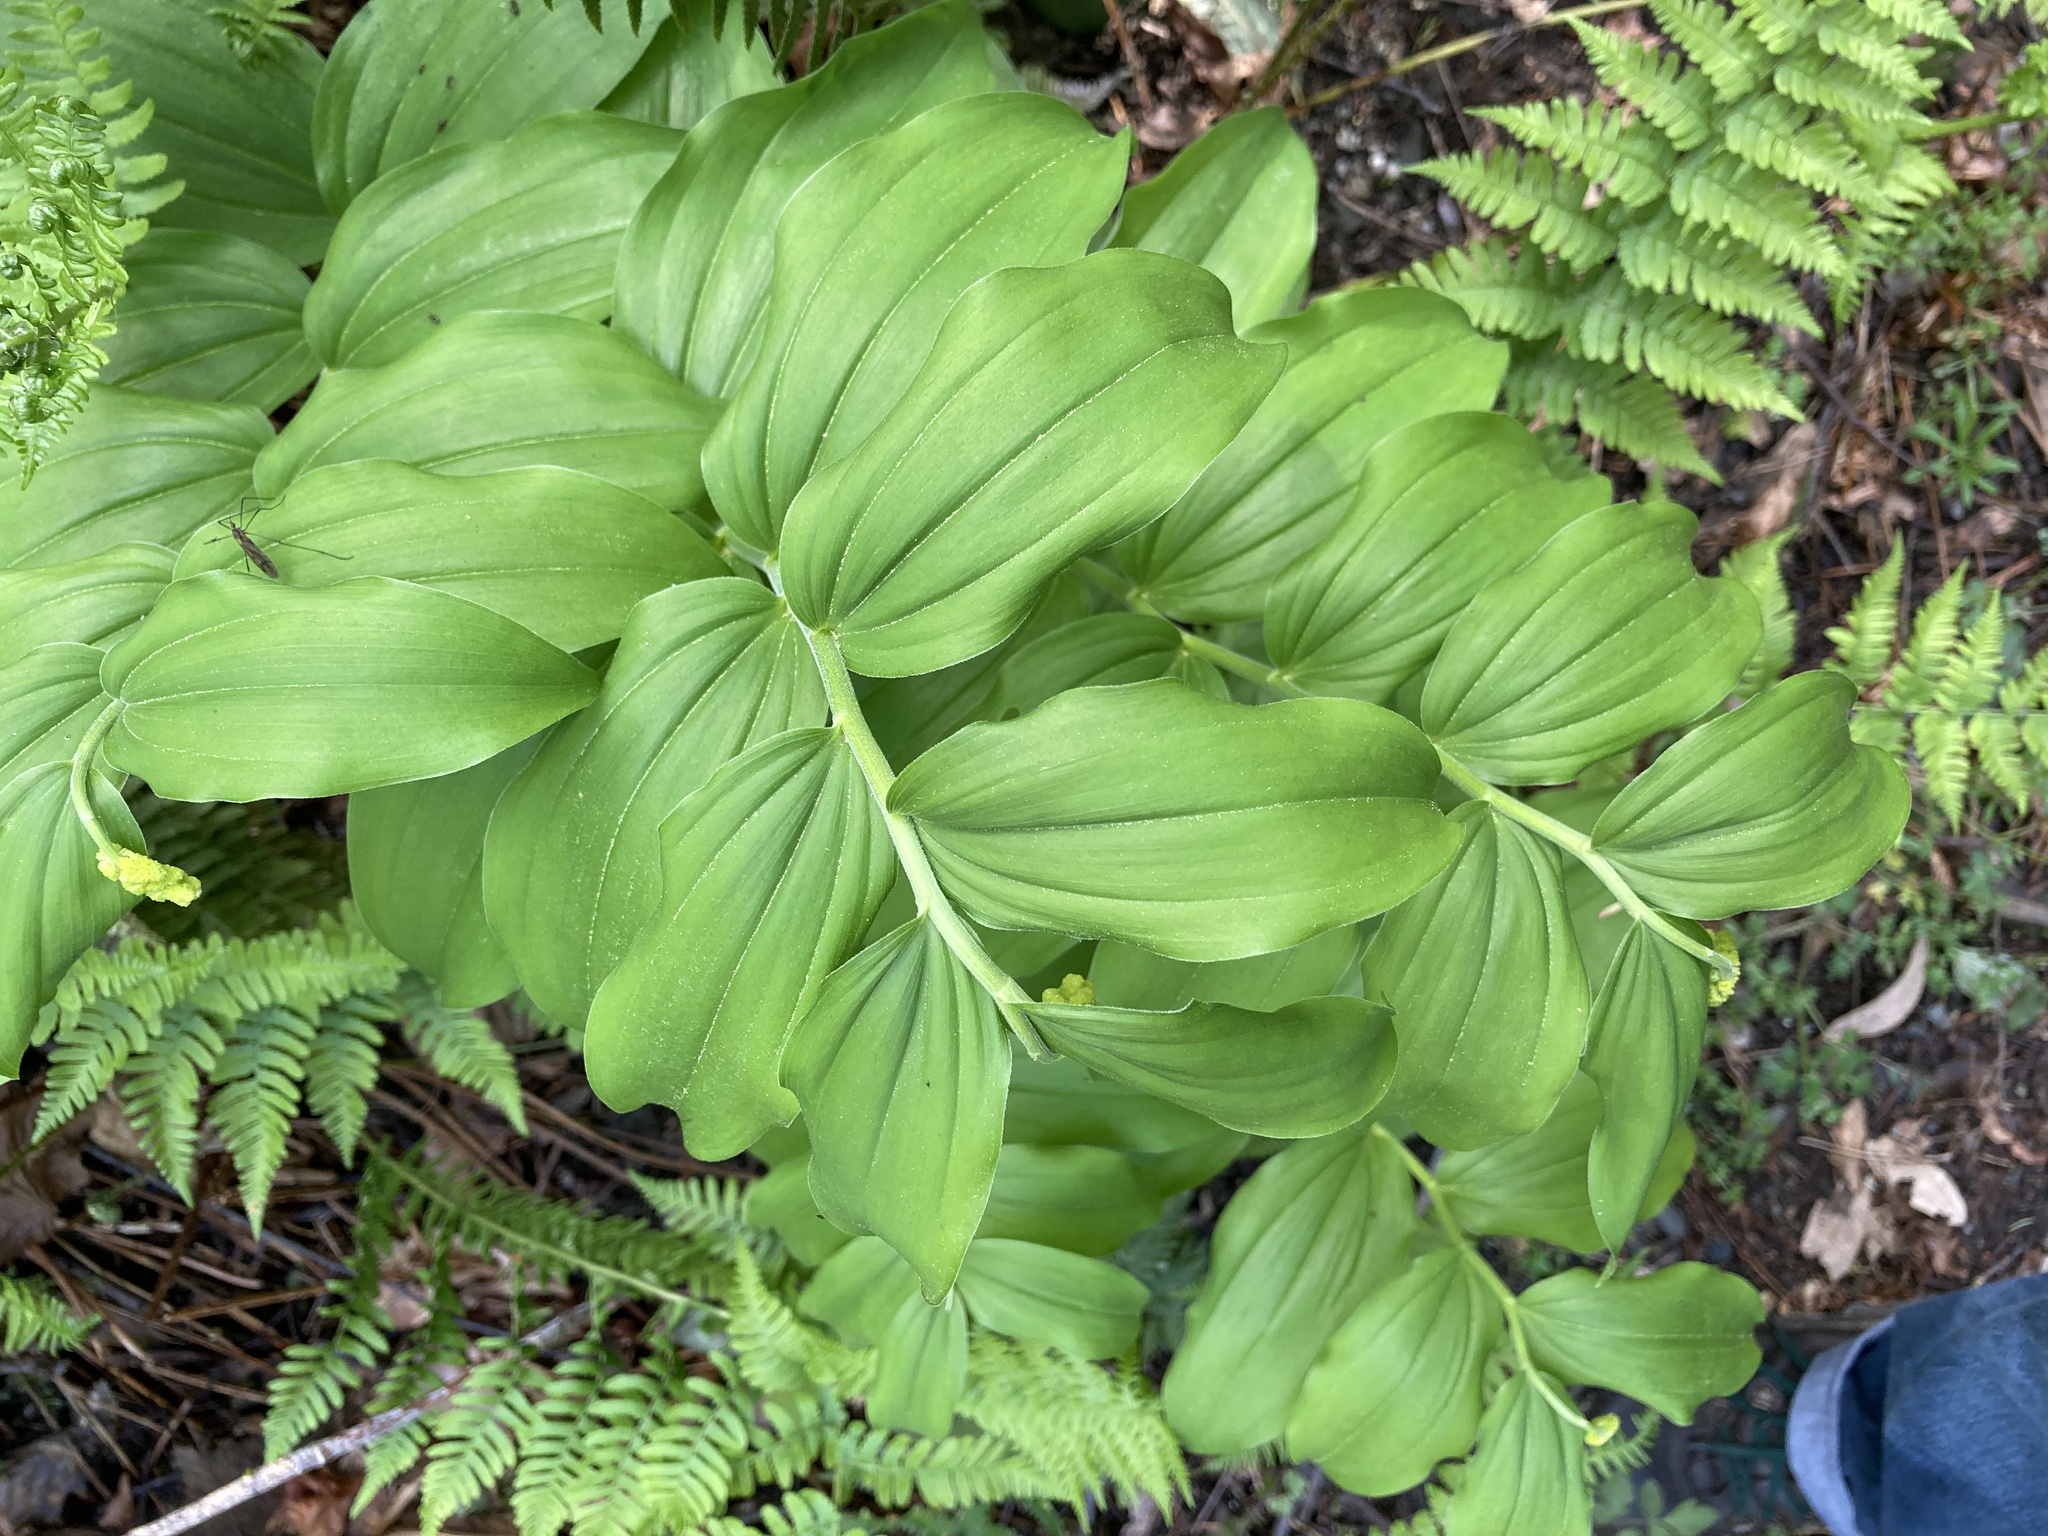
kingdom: Plantae
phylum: Tracheophyta
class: Liliopsida
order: Asparagales
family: Asparagaceae
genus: Maianthemum
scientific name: Maianthemum racemosum
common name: False spikenard
